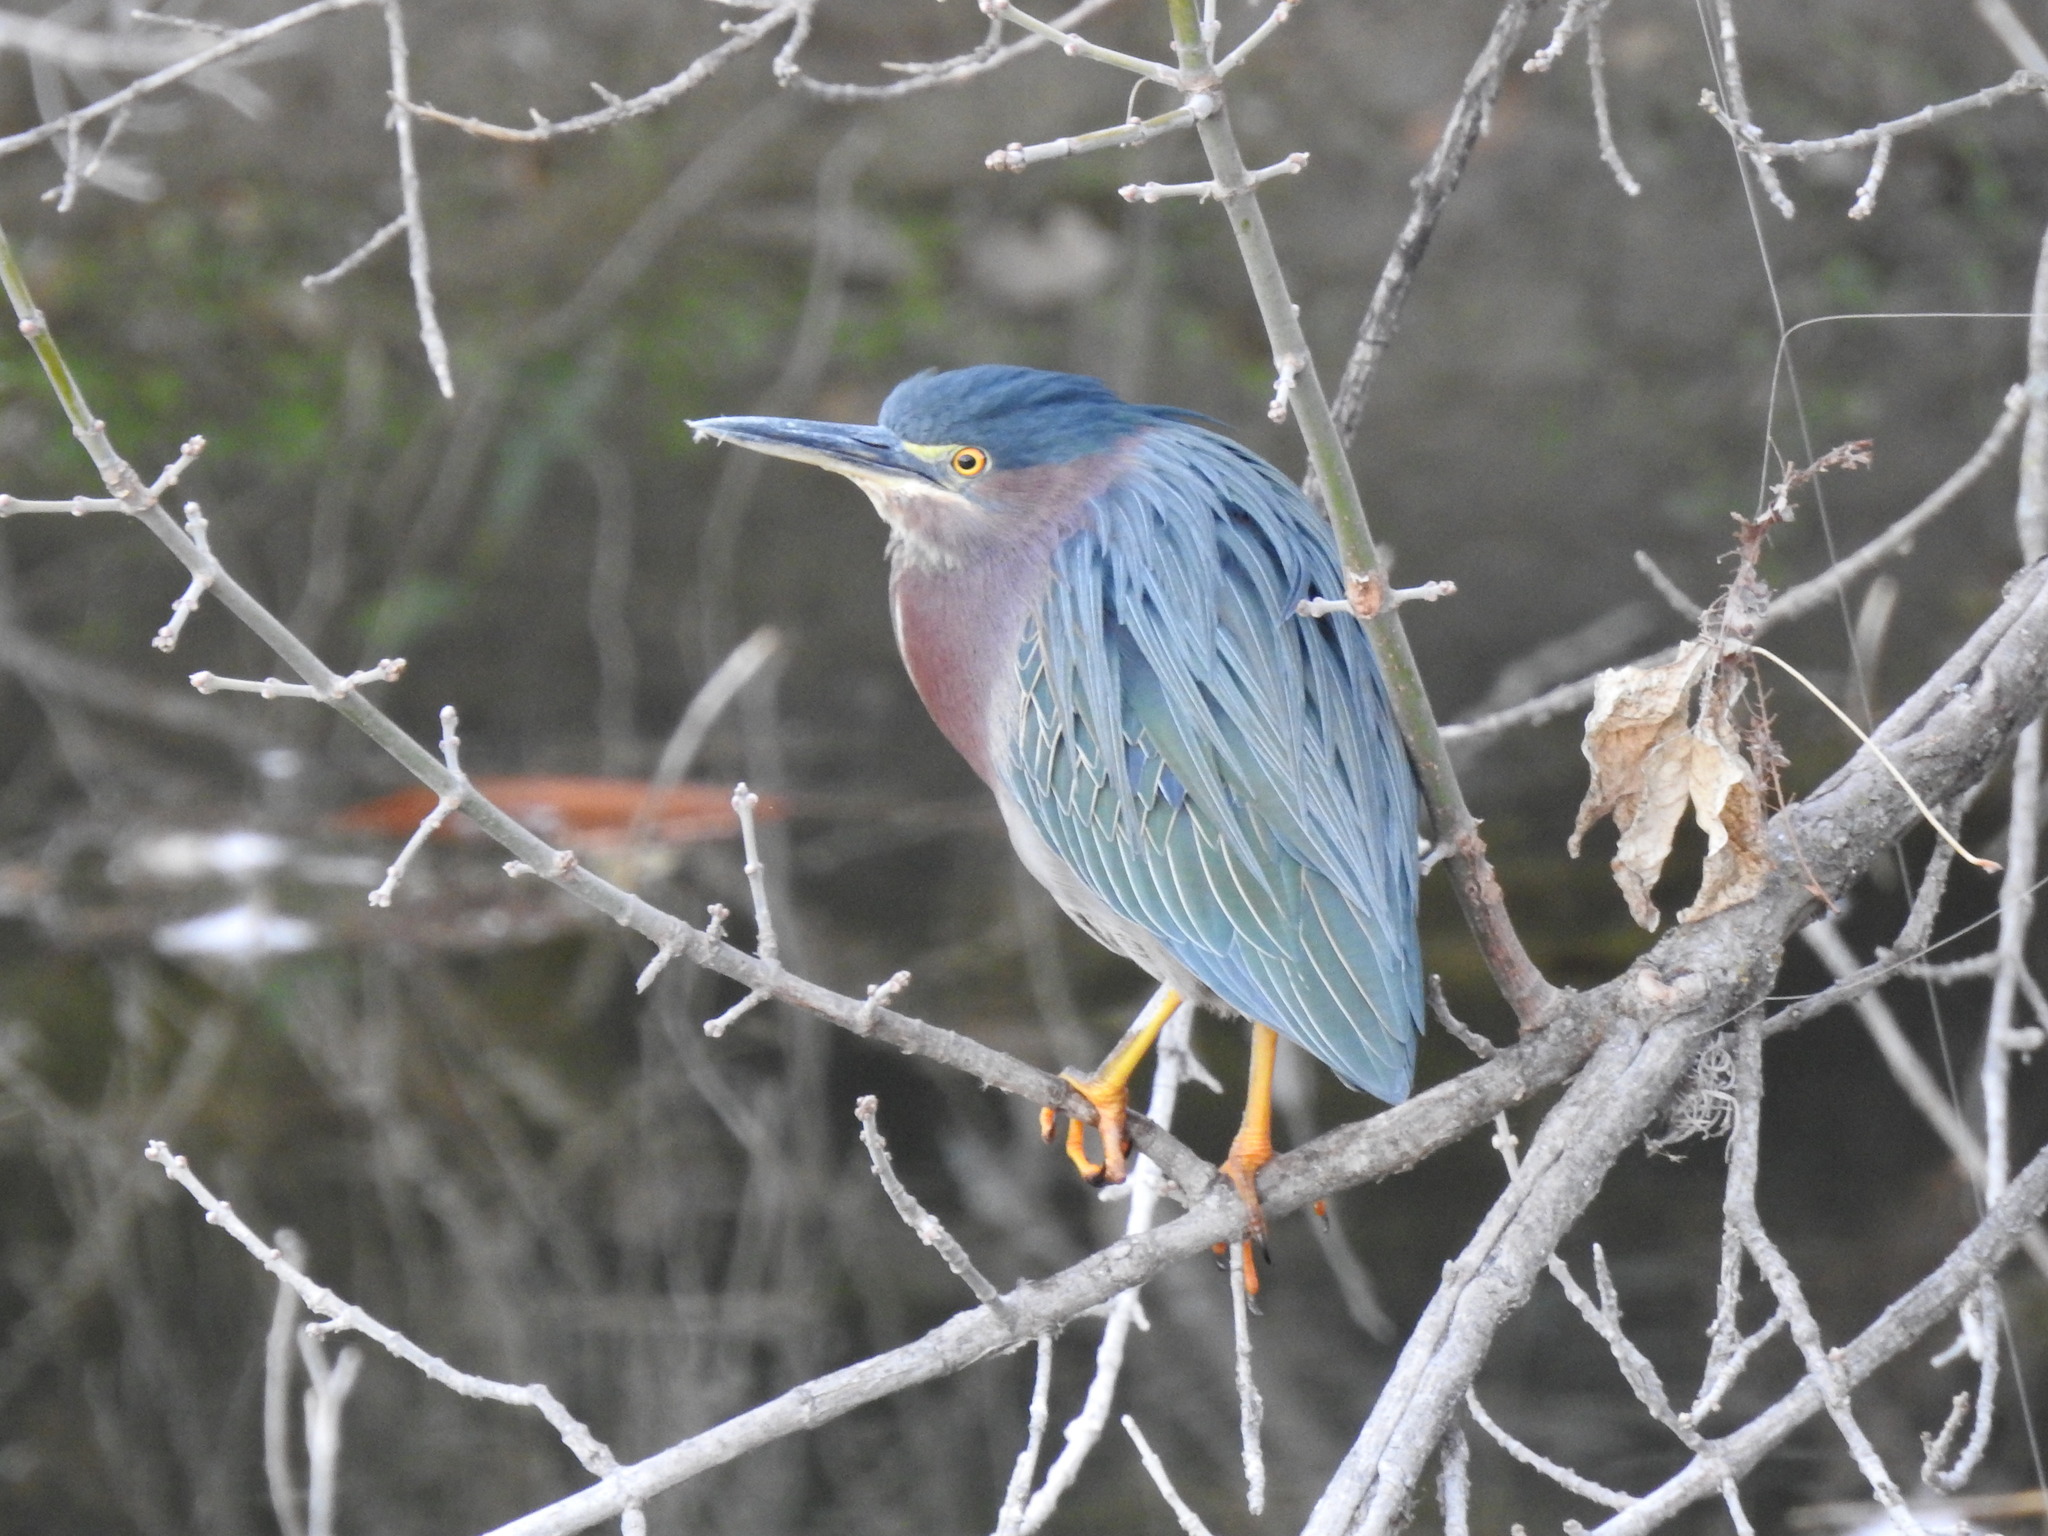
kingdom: Animalia
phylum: Chordata
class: Aves
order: Pelecaniformes
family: Ardeidae
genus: Butorides
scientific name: Butorides virescens
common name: Green heron
